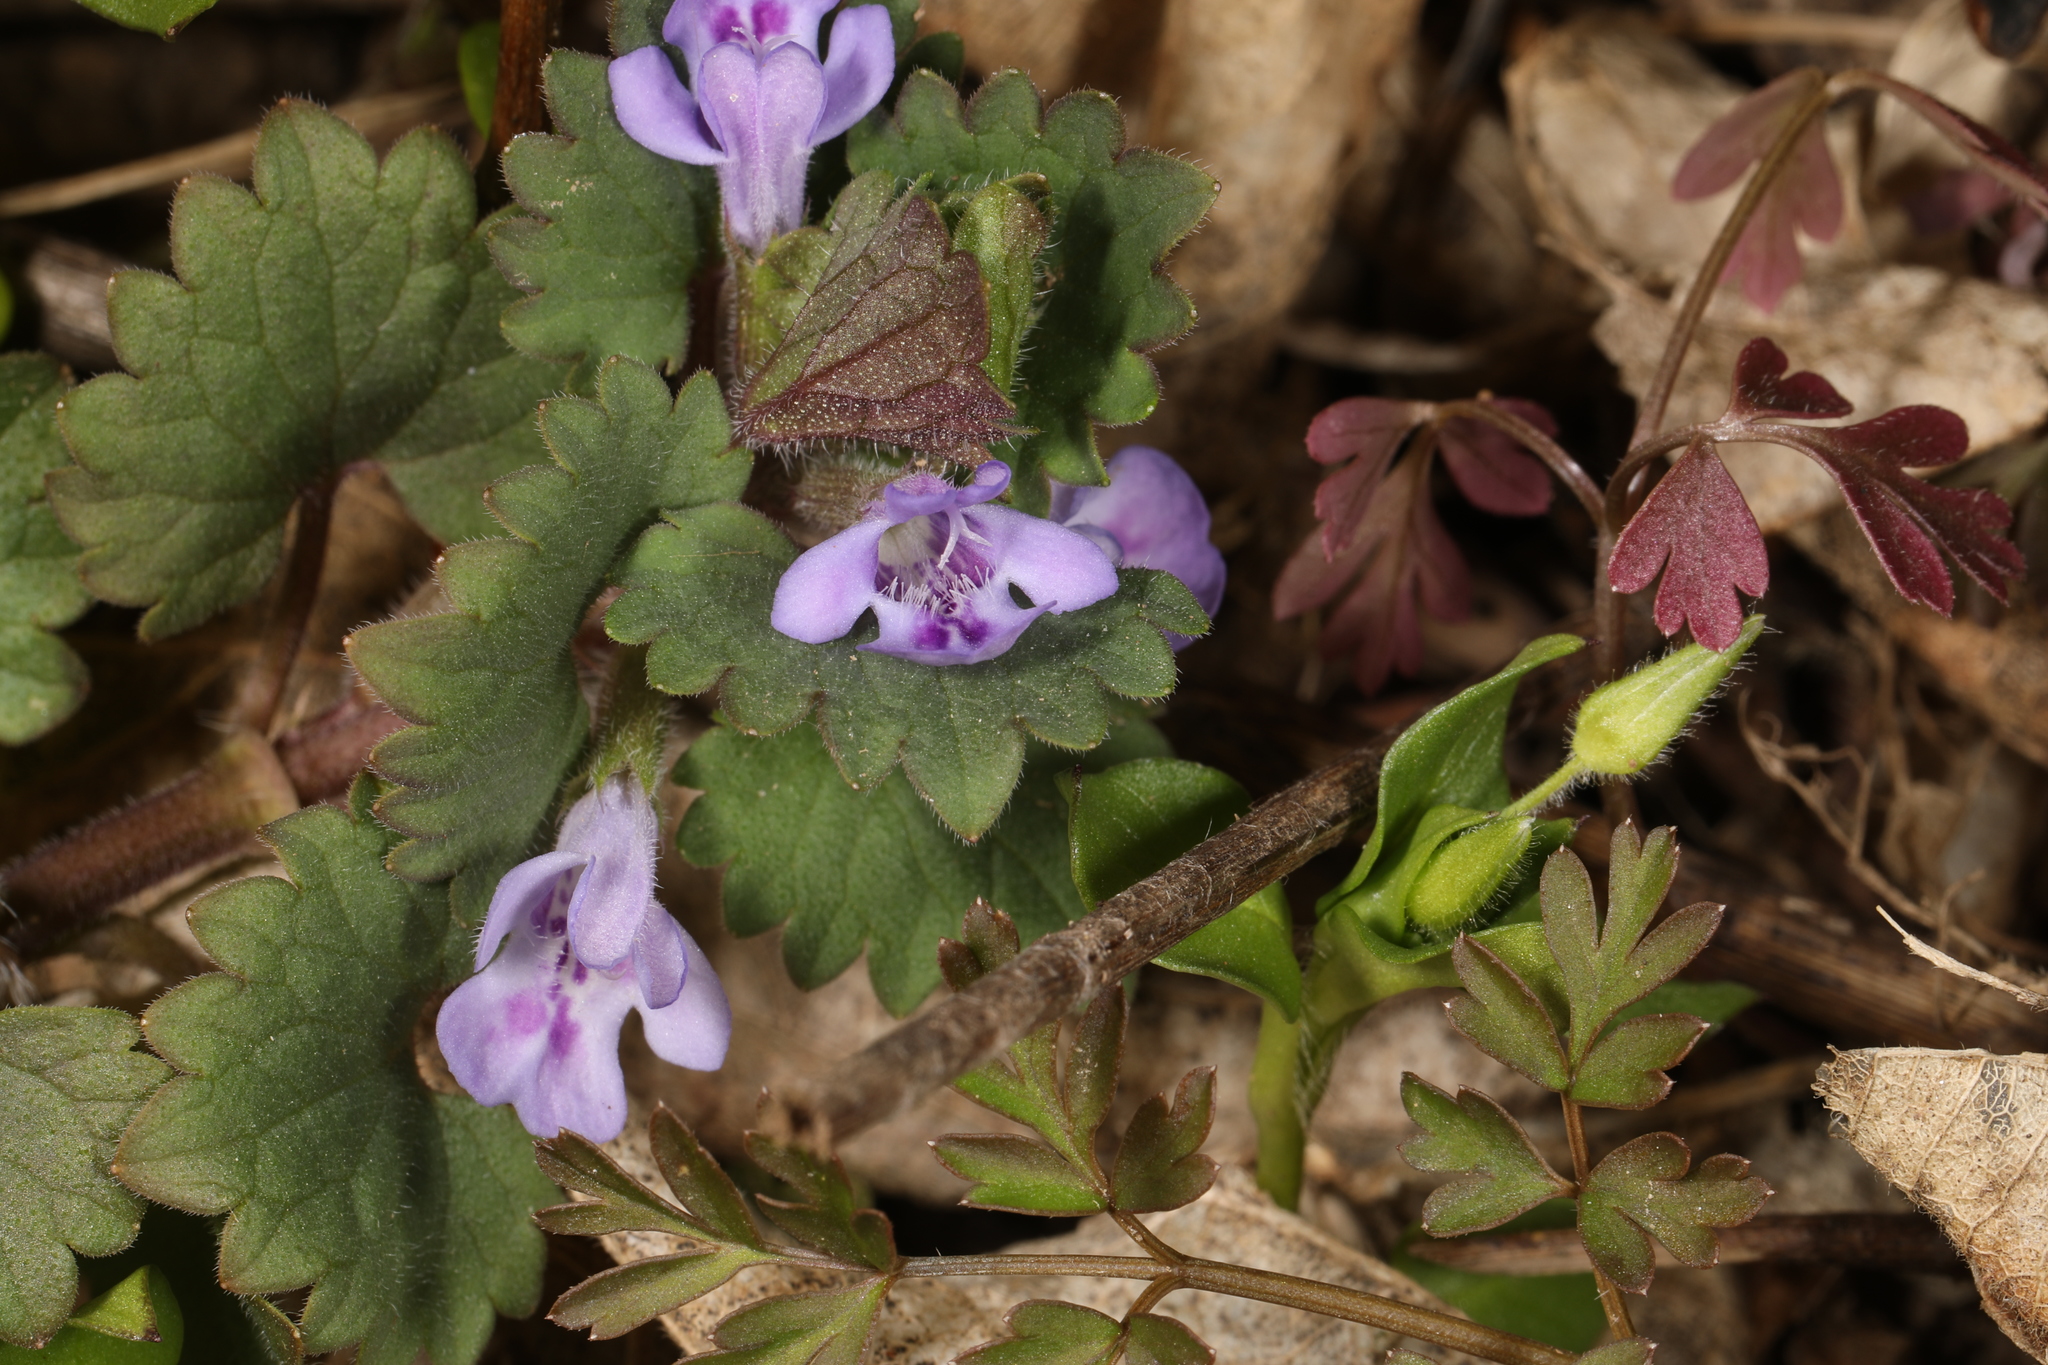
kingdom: Plantae
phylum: Tracheophyta
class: Magnoliopsida
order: Lamiales
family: Lamiaceae
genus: Glechoma
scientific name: Glechoma hederacea
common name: Ground ivy
